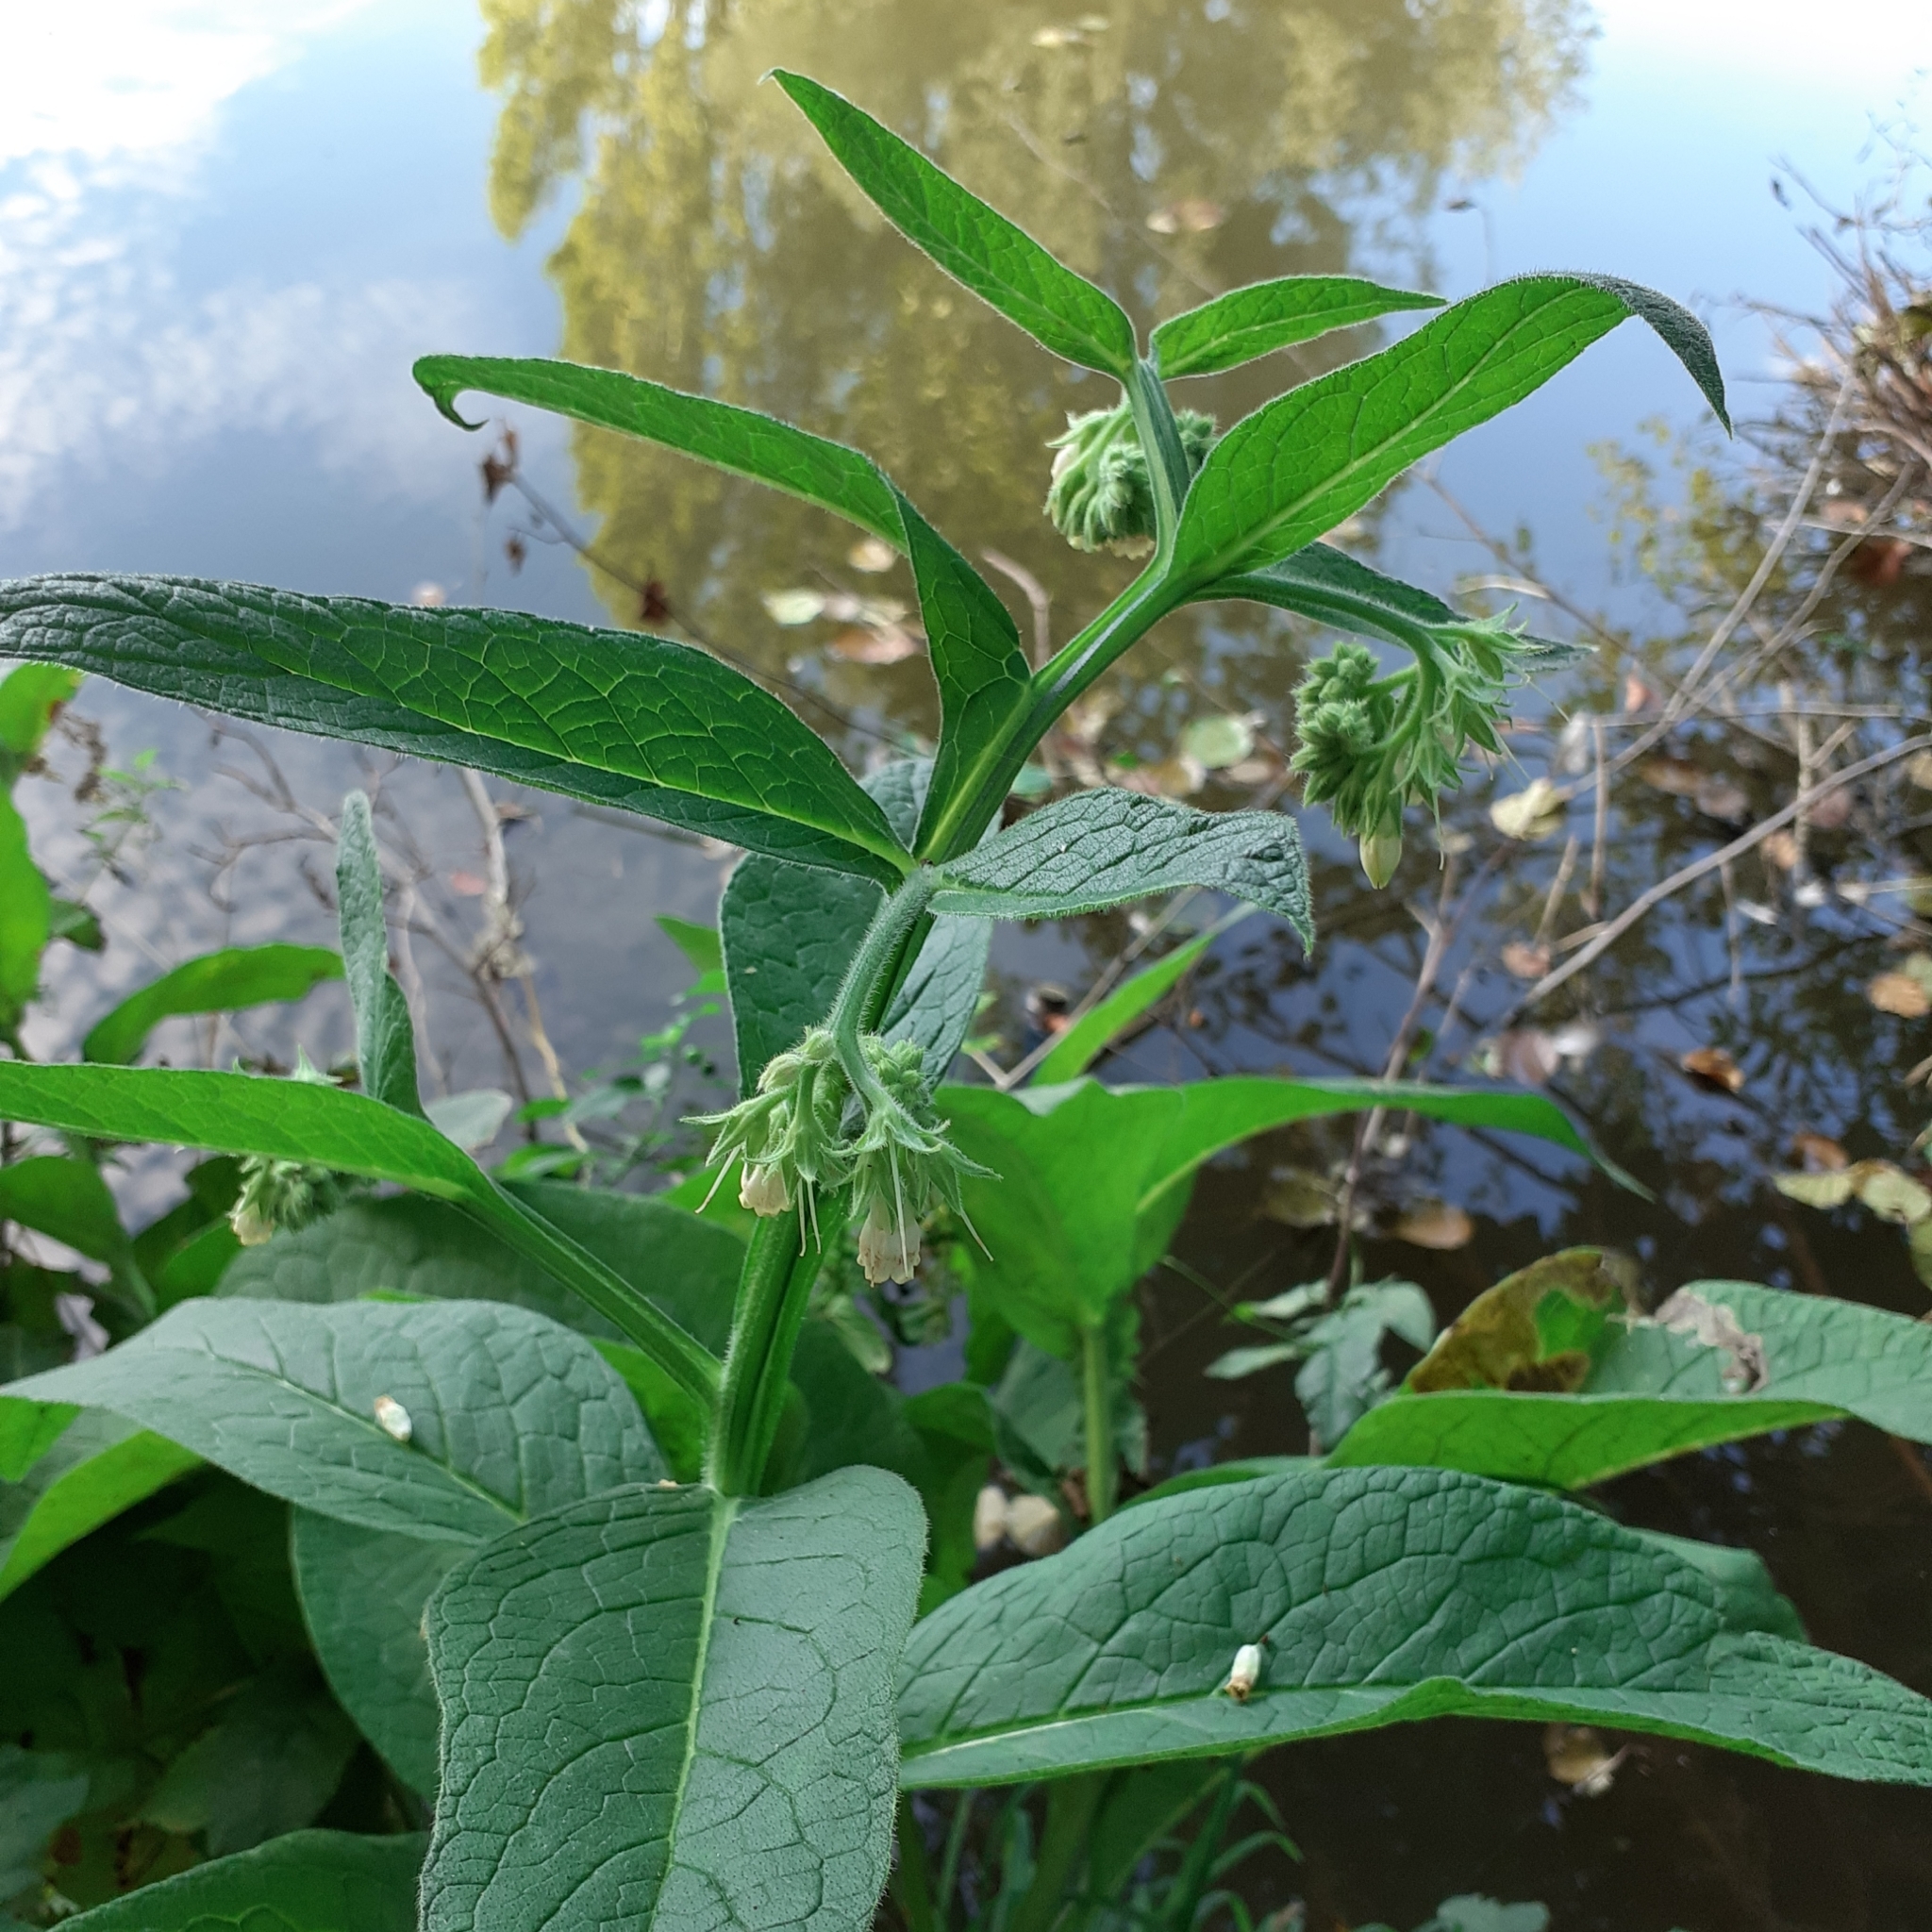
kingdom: Plantae
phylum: Tracheophyta
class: Magnoliopsida
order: Boraginales
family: Boraginaceae
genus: Symphytum
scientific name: Symphytum officinale
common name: Common comfrey
